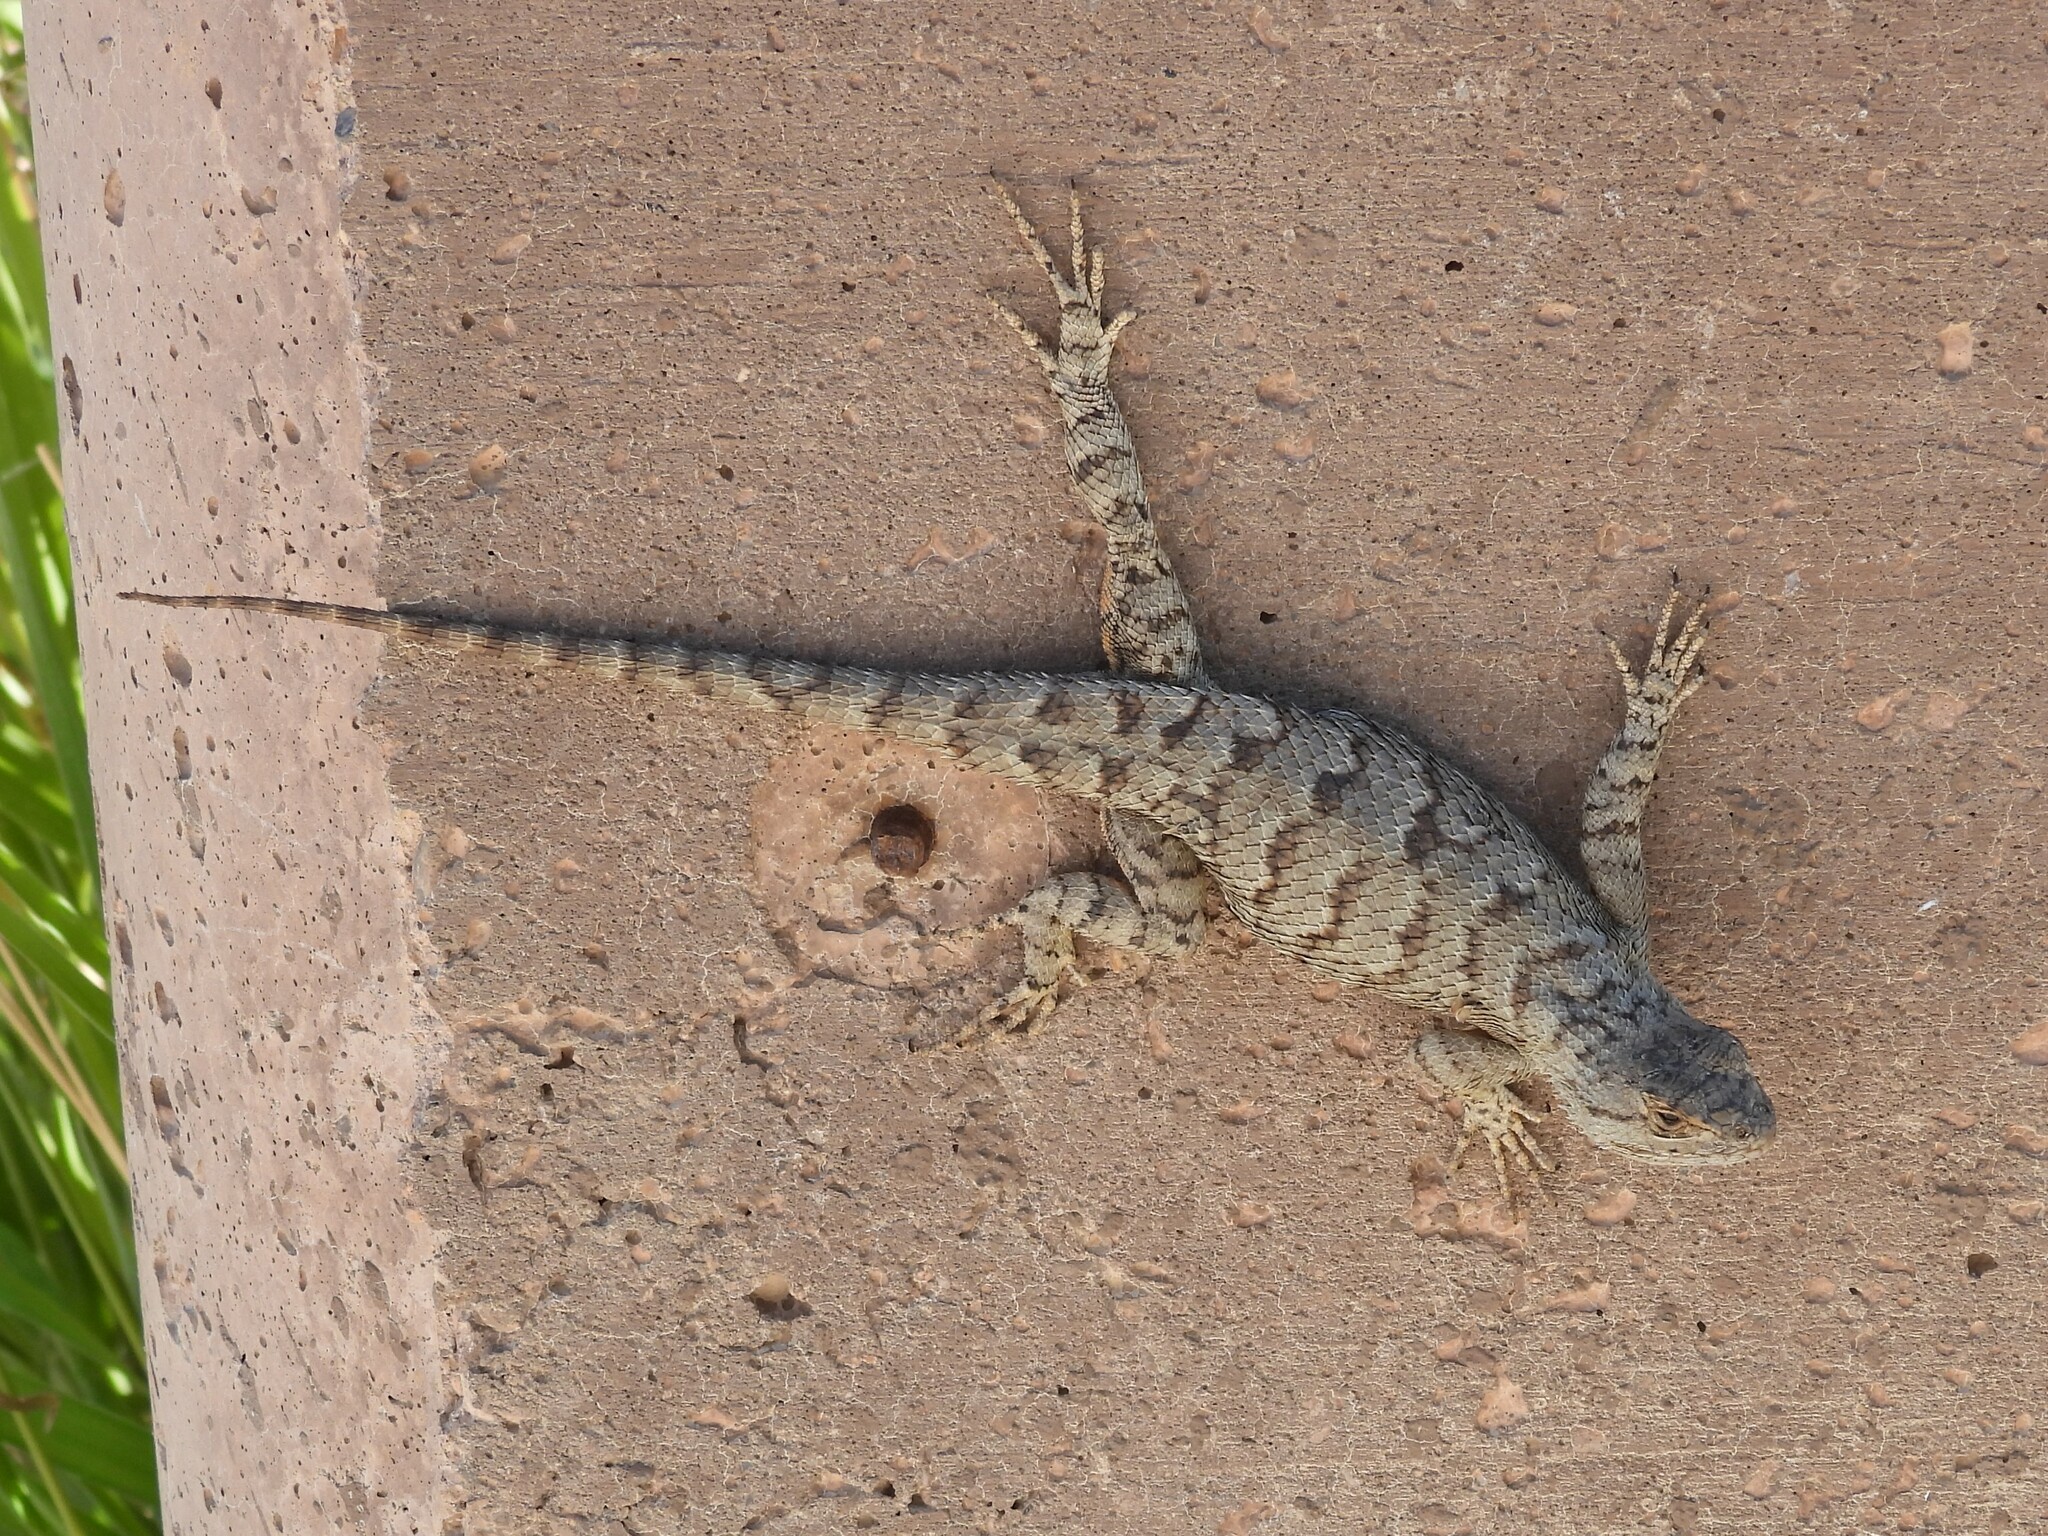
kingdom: Animalia
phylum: Chordata
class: Squamata
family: Phrynosomatidae
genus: Sceloporus
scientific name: Sceloporus occidentalis
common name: Western fence lizard
